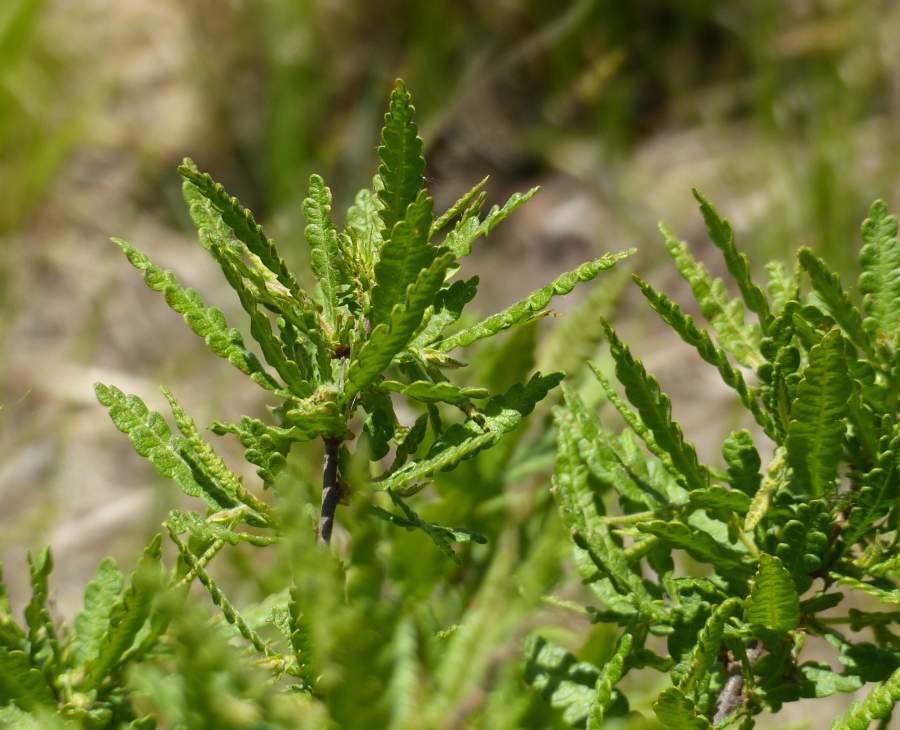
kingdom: Plantae
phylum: Tracheophyta
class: Magnoliopsida
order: Fagales
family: Myricaceae
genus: Comptonia
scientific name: Comptonia peregrina
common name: Sweet-fern
